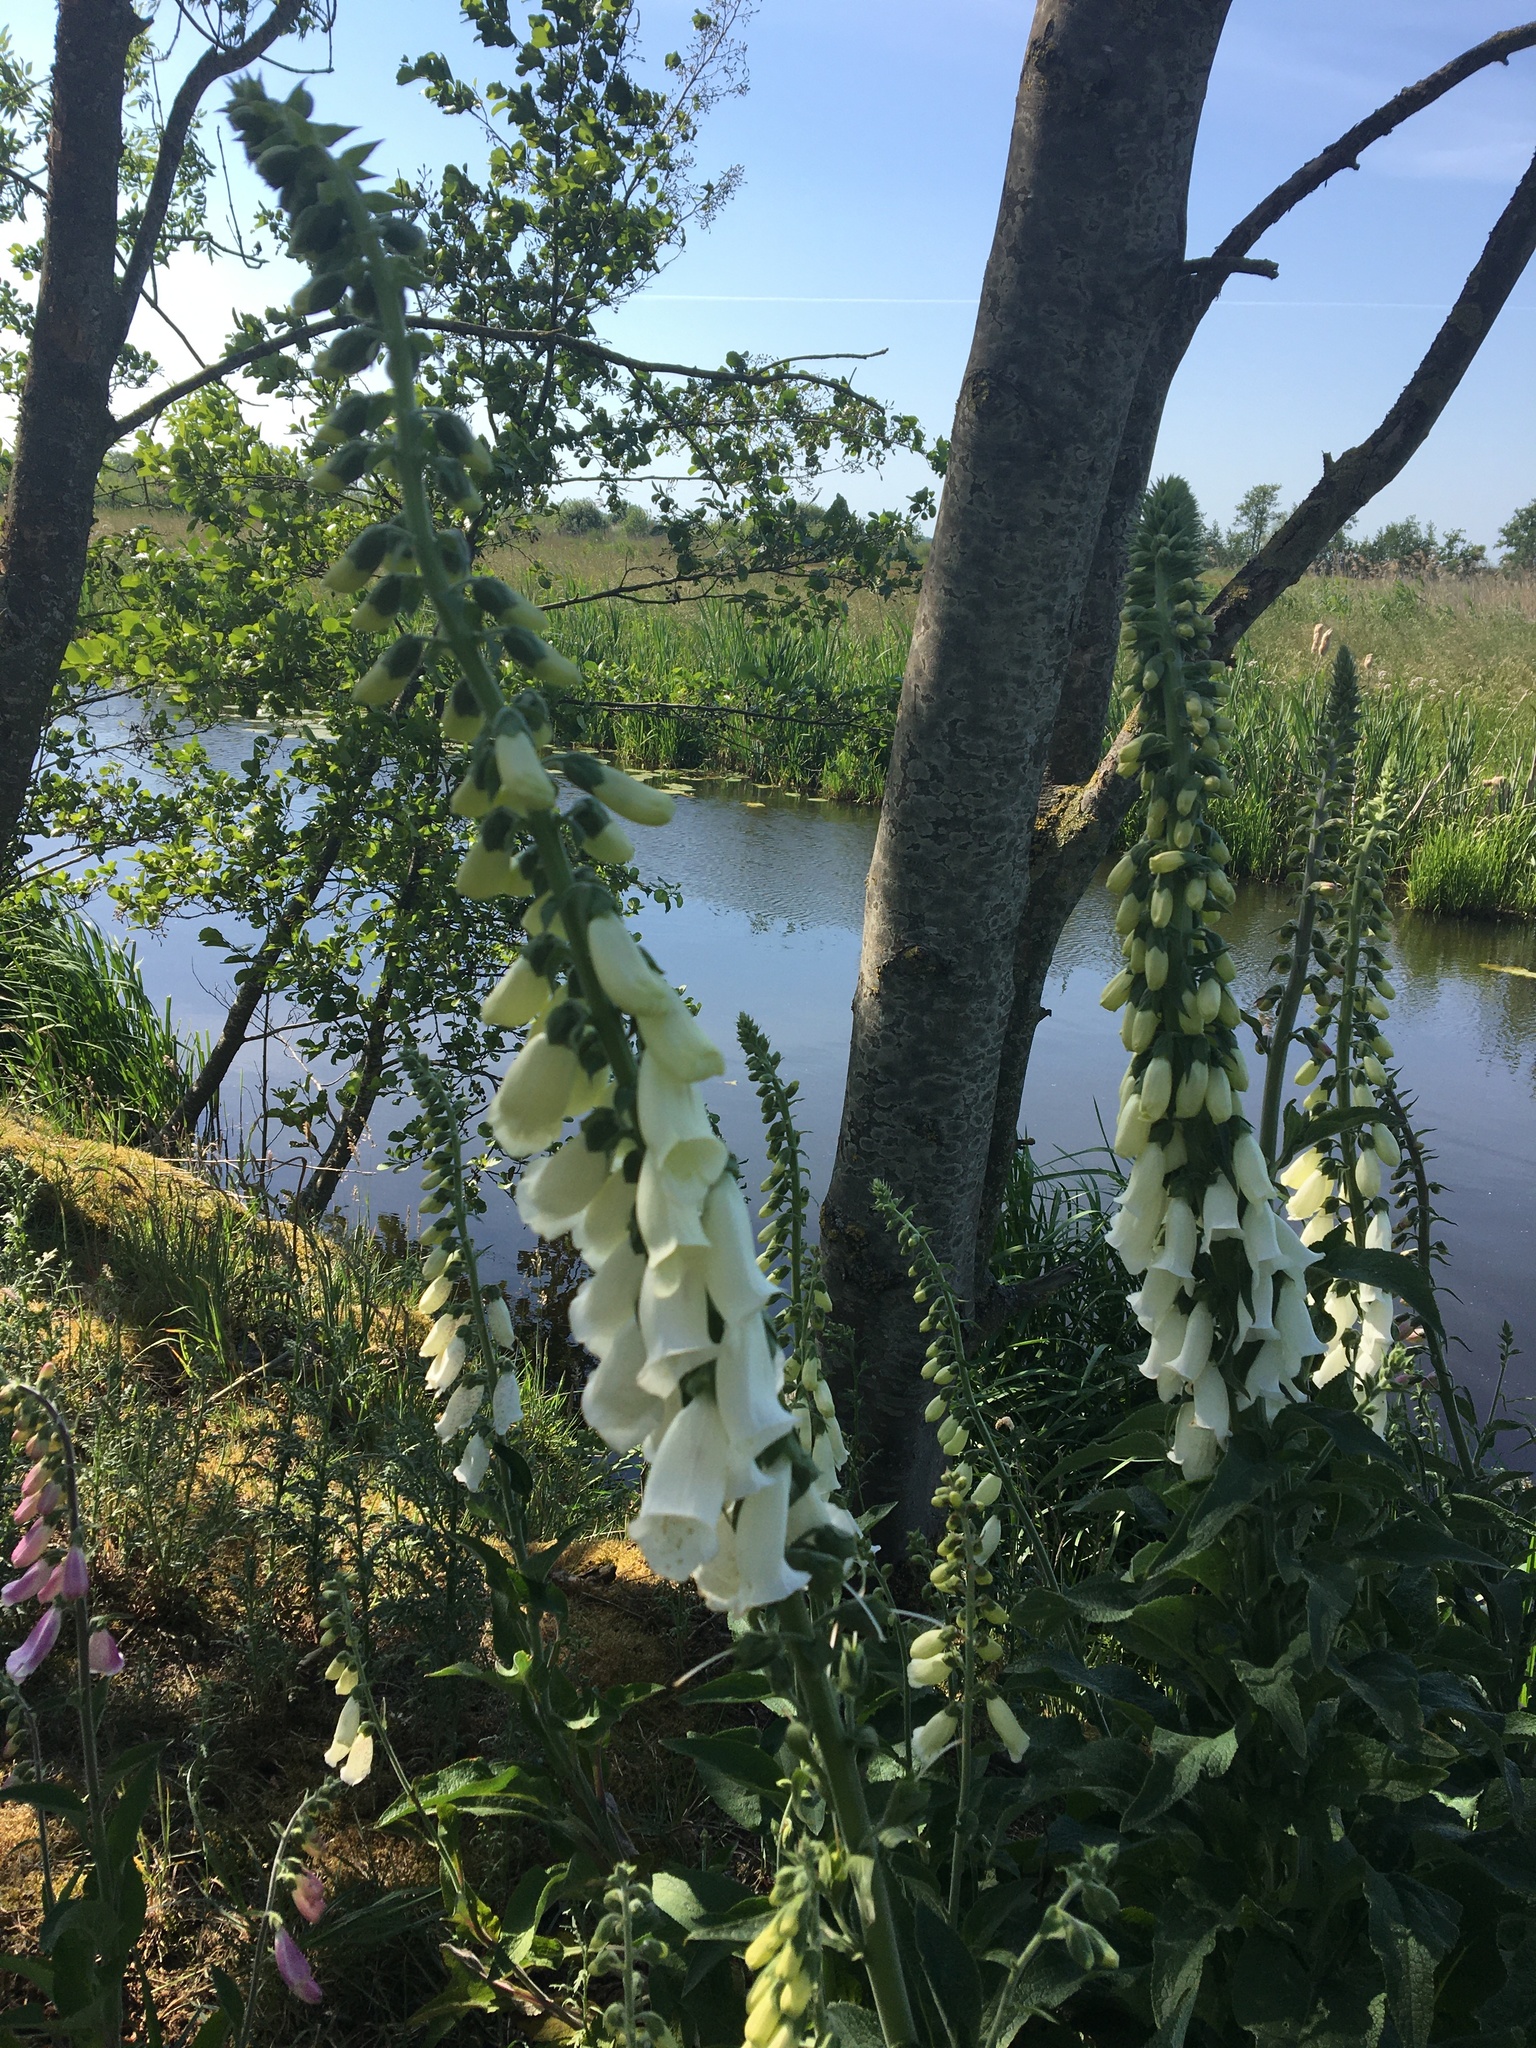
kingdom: Plantae
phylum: Tracheophyta
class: Magnoliopsida
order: Lamiales
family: Plantaginaceae
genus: Digitalis
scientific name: Digitalis purpurea
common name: Foxglove
